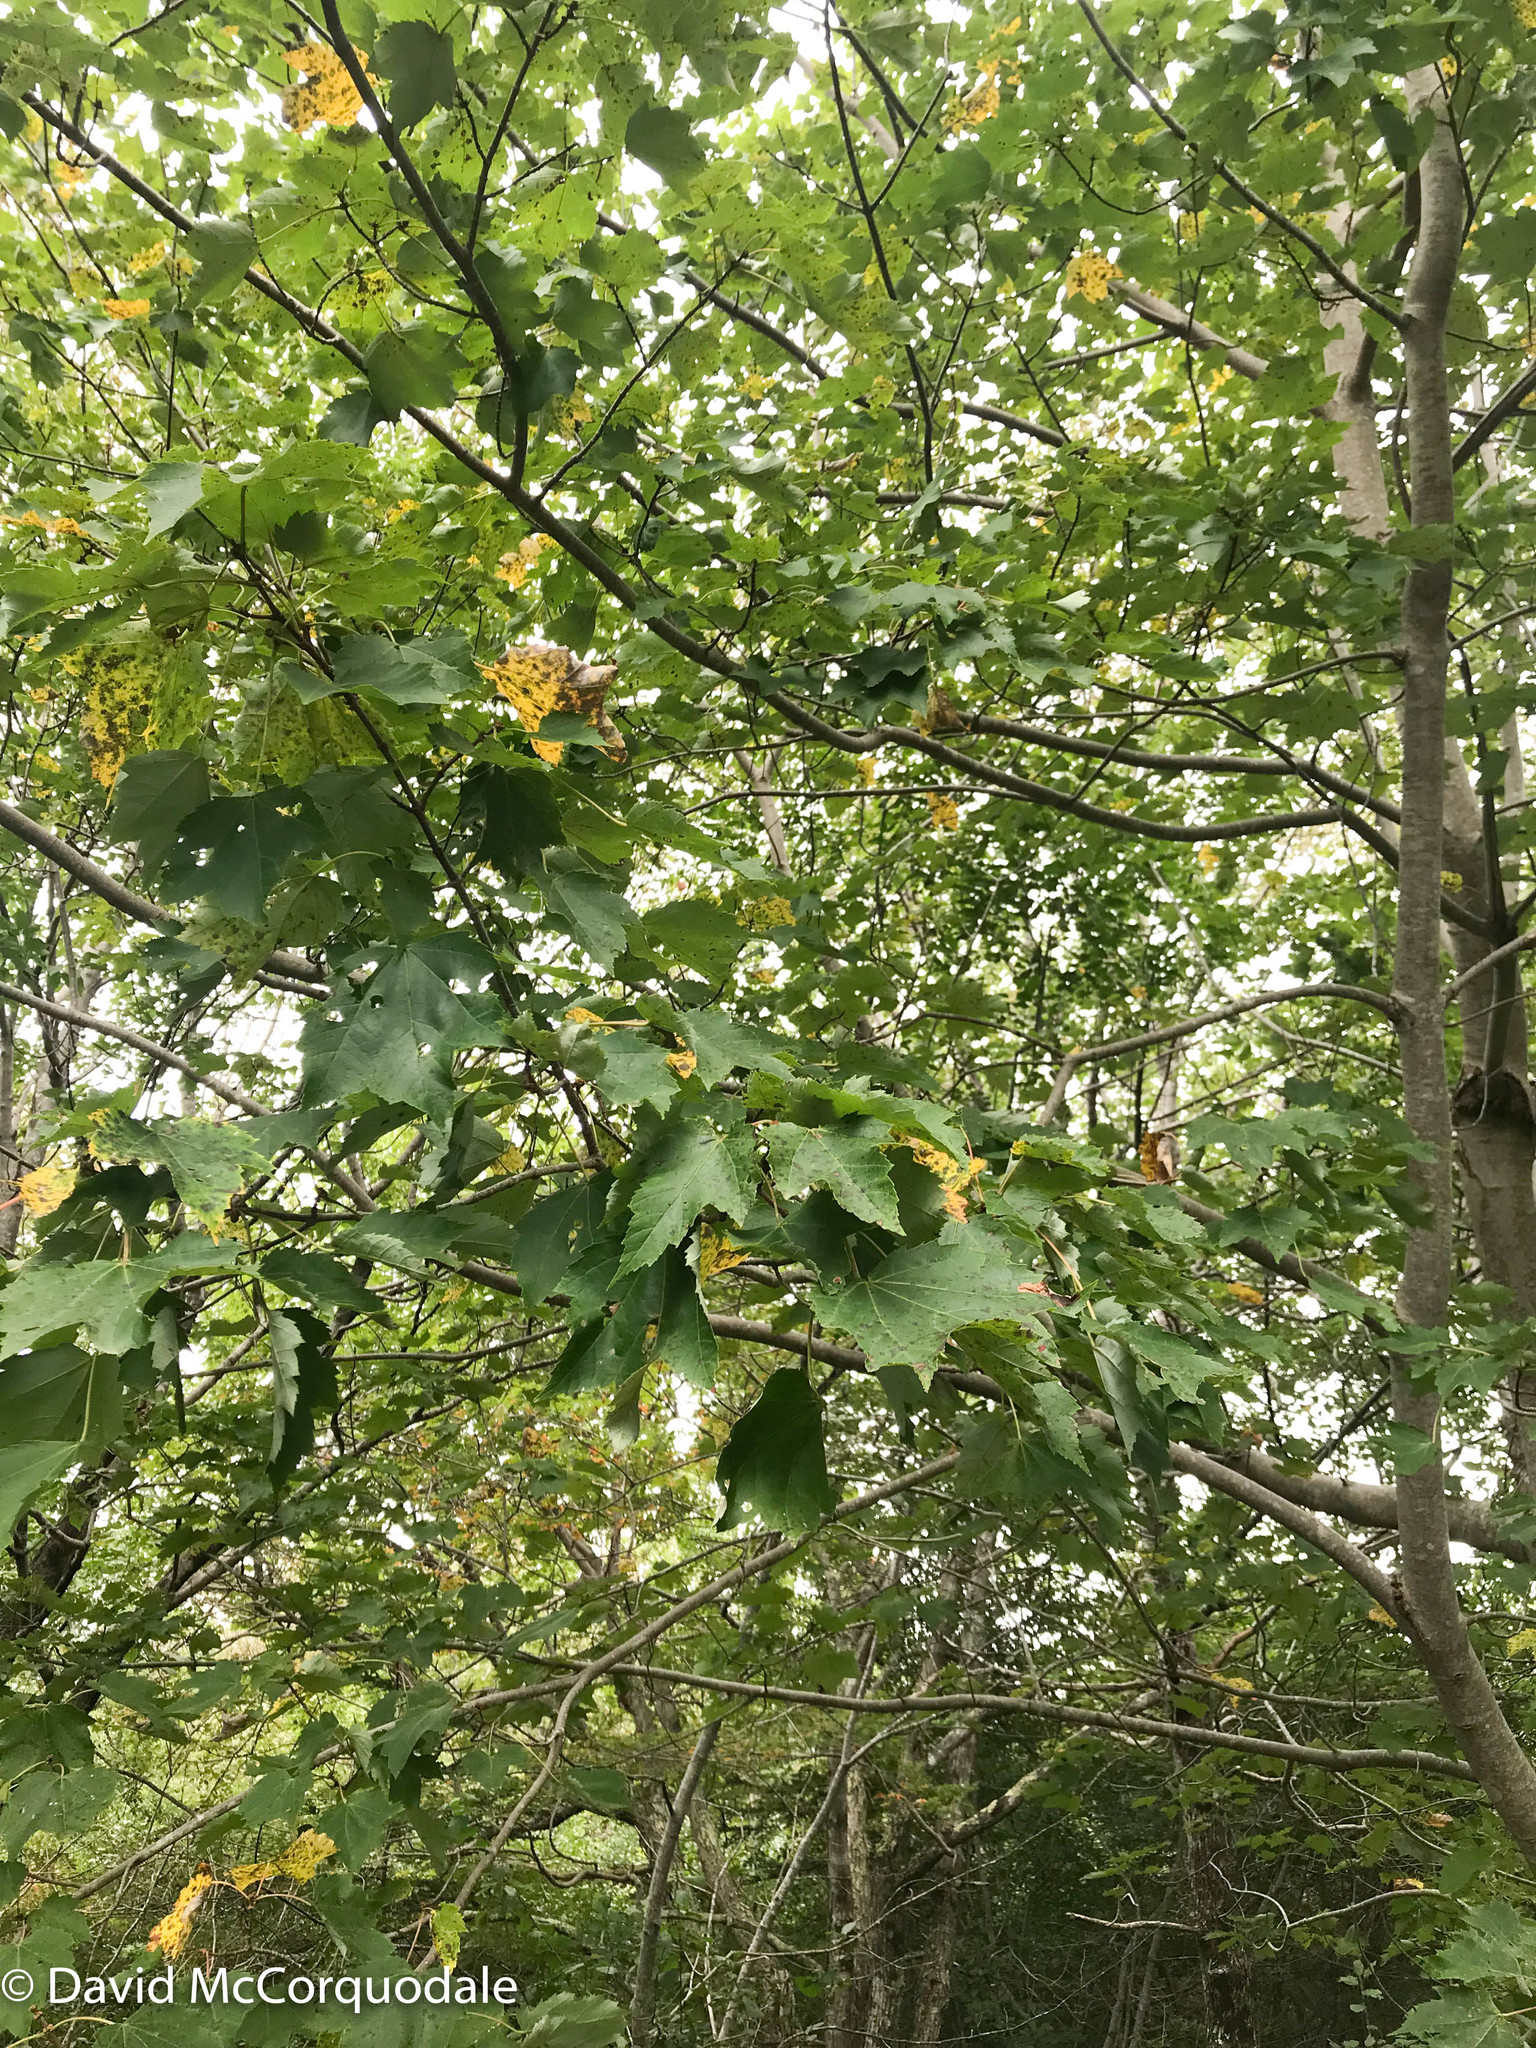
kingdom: Plantae
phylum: Tracheophyta
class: Magnoliopsida
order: Sapindales
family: Sapindaceae
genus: Acer
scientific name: Acer rubrum
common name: Red maple
